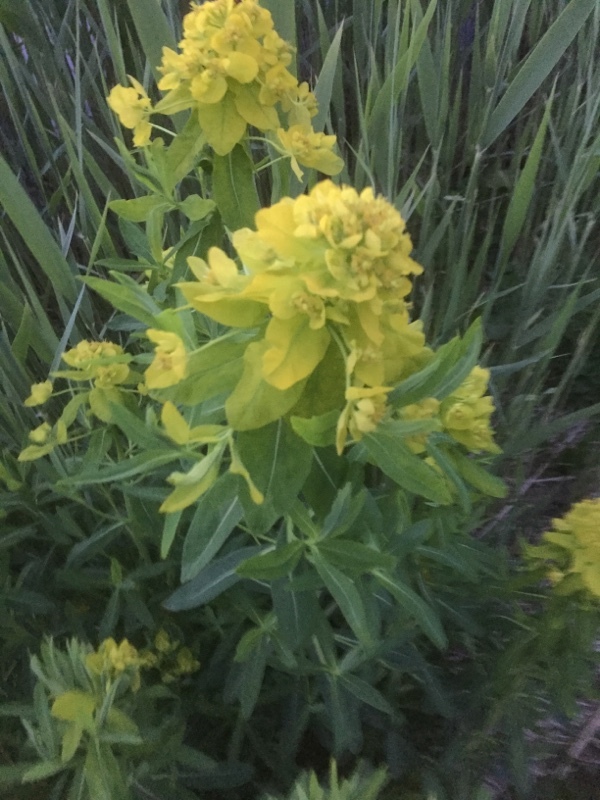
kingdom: Plantae
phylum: Tracheophyta
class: Magnoliopsida
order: Malpighiales
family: Euphorbiaceae
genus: Euphorbia
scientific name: Euphorbia palustris
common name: Marsh spurge
